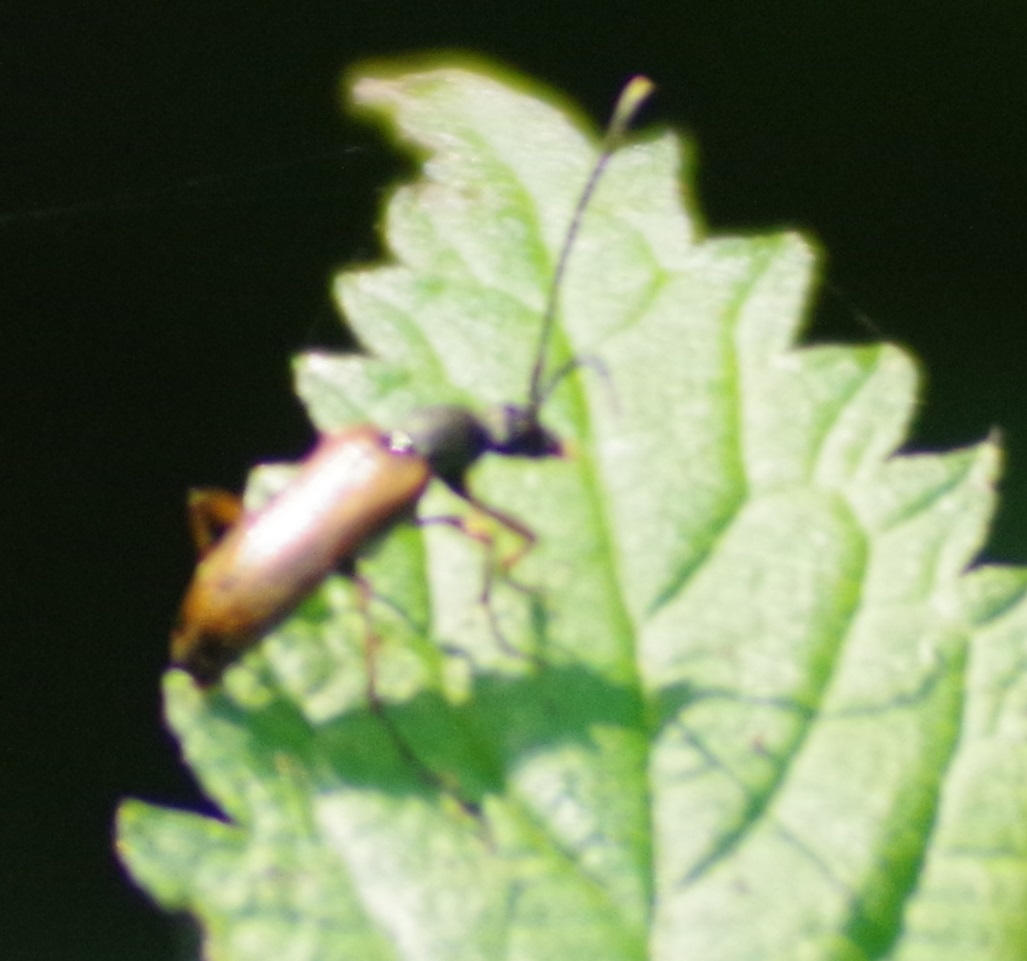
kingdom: Animalia
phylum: Arthropoda
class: Insecta
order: Coleoptera
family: Cerambycidae
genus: Alosterna
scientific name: Alosterna tabacicolor
